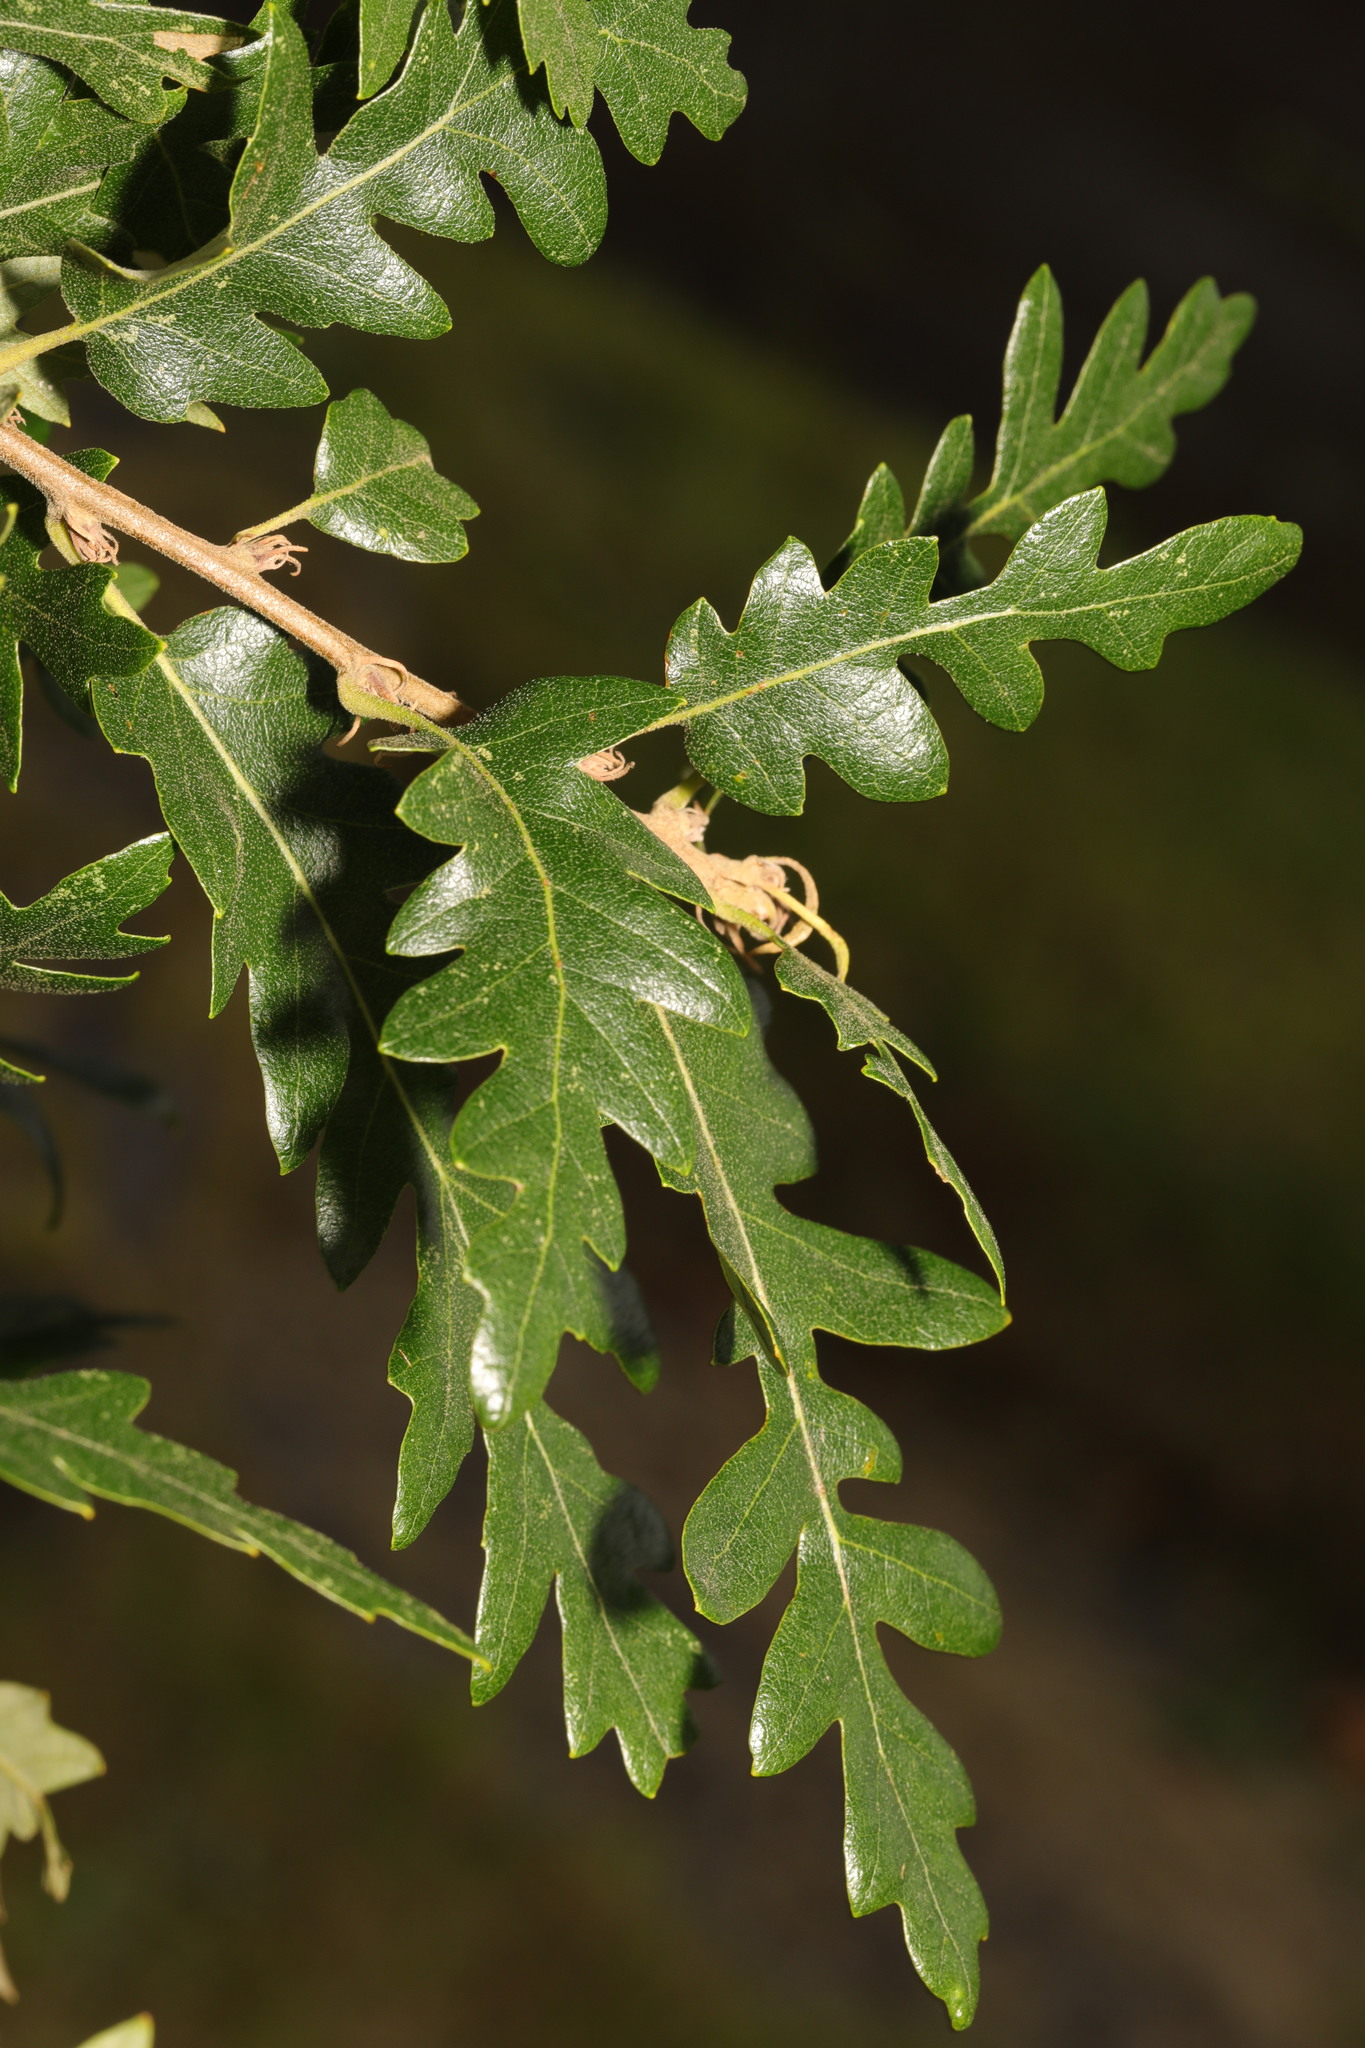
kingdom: Plantae
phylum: Tracheophyta
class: Magnoliopsida
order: Fagales
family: Fagaceae
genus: Quercus
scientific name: Quercus cerris
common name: Turkey oak
